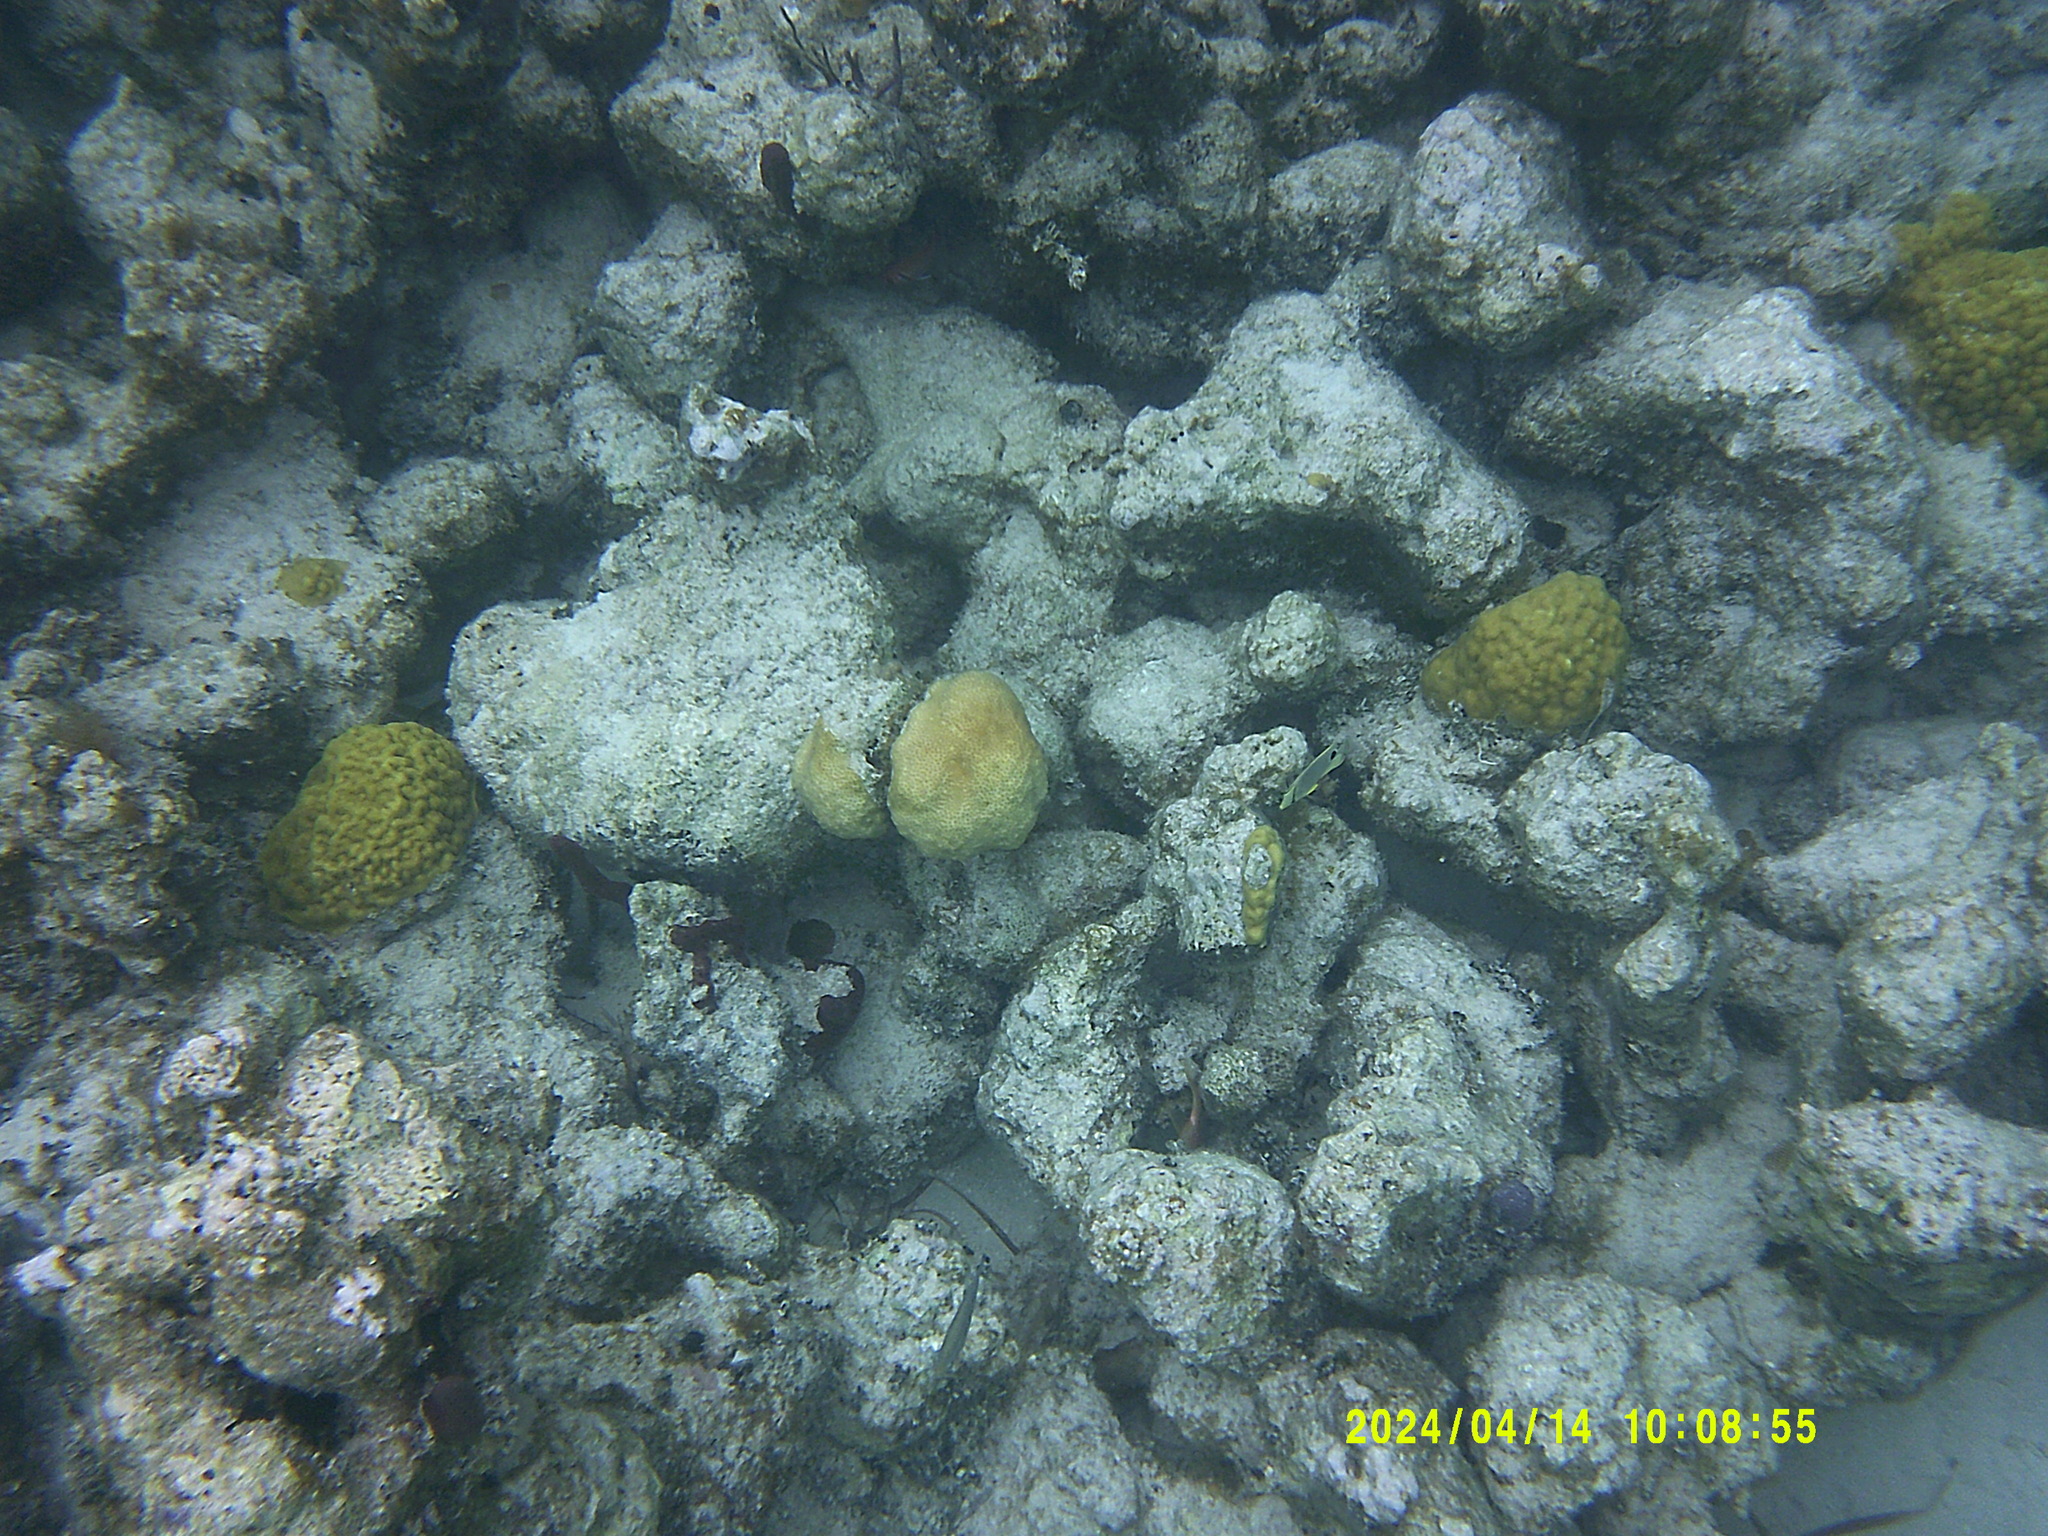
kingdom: Animalia
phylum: Chordata
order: Perciformes
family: Chaetodontidae
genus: Chaetodon
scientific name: Chaetodon capistratus
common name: Kete
